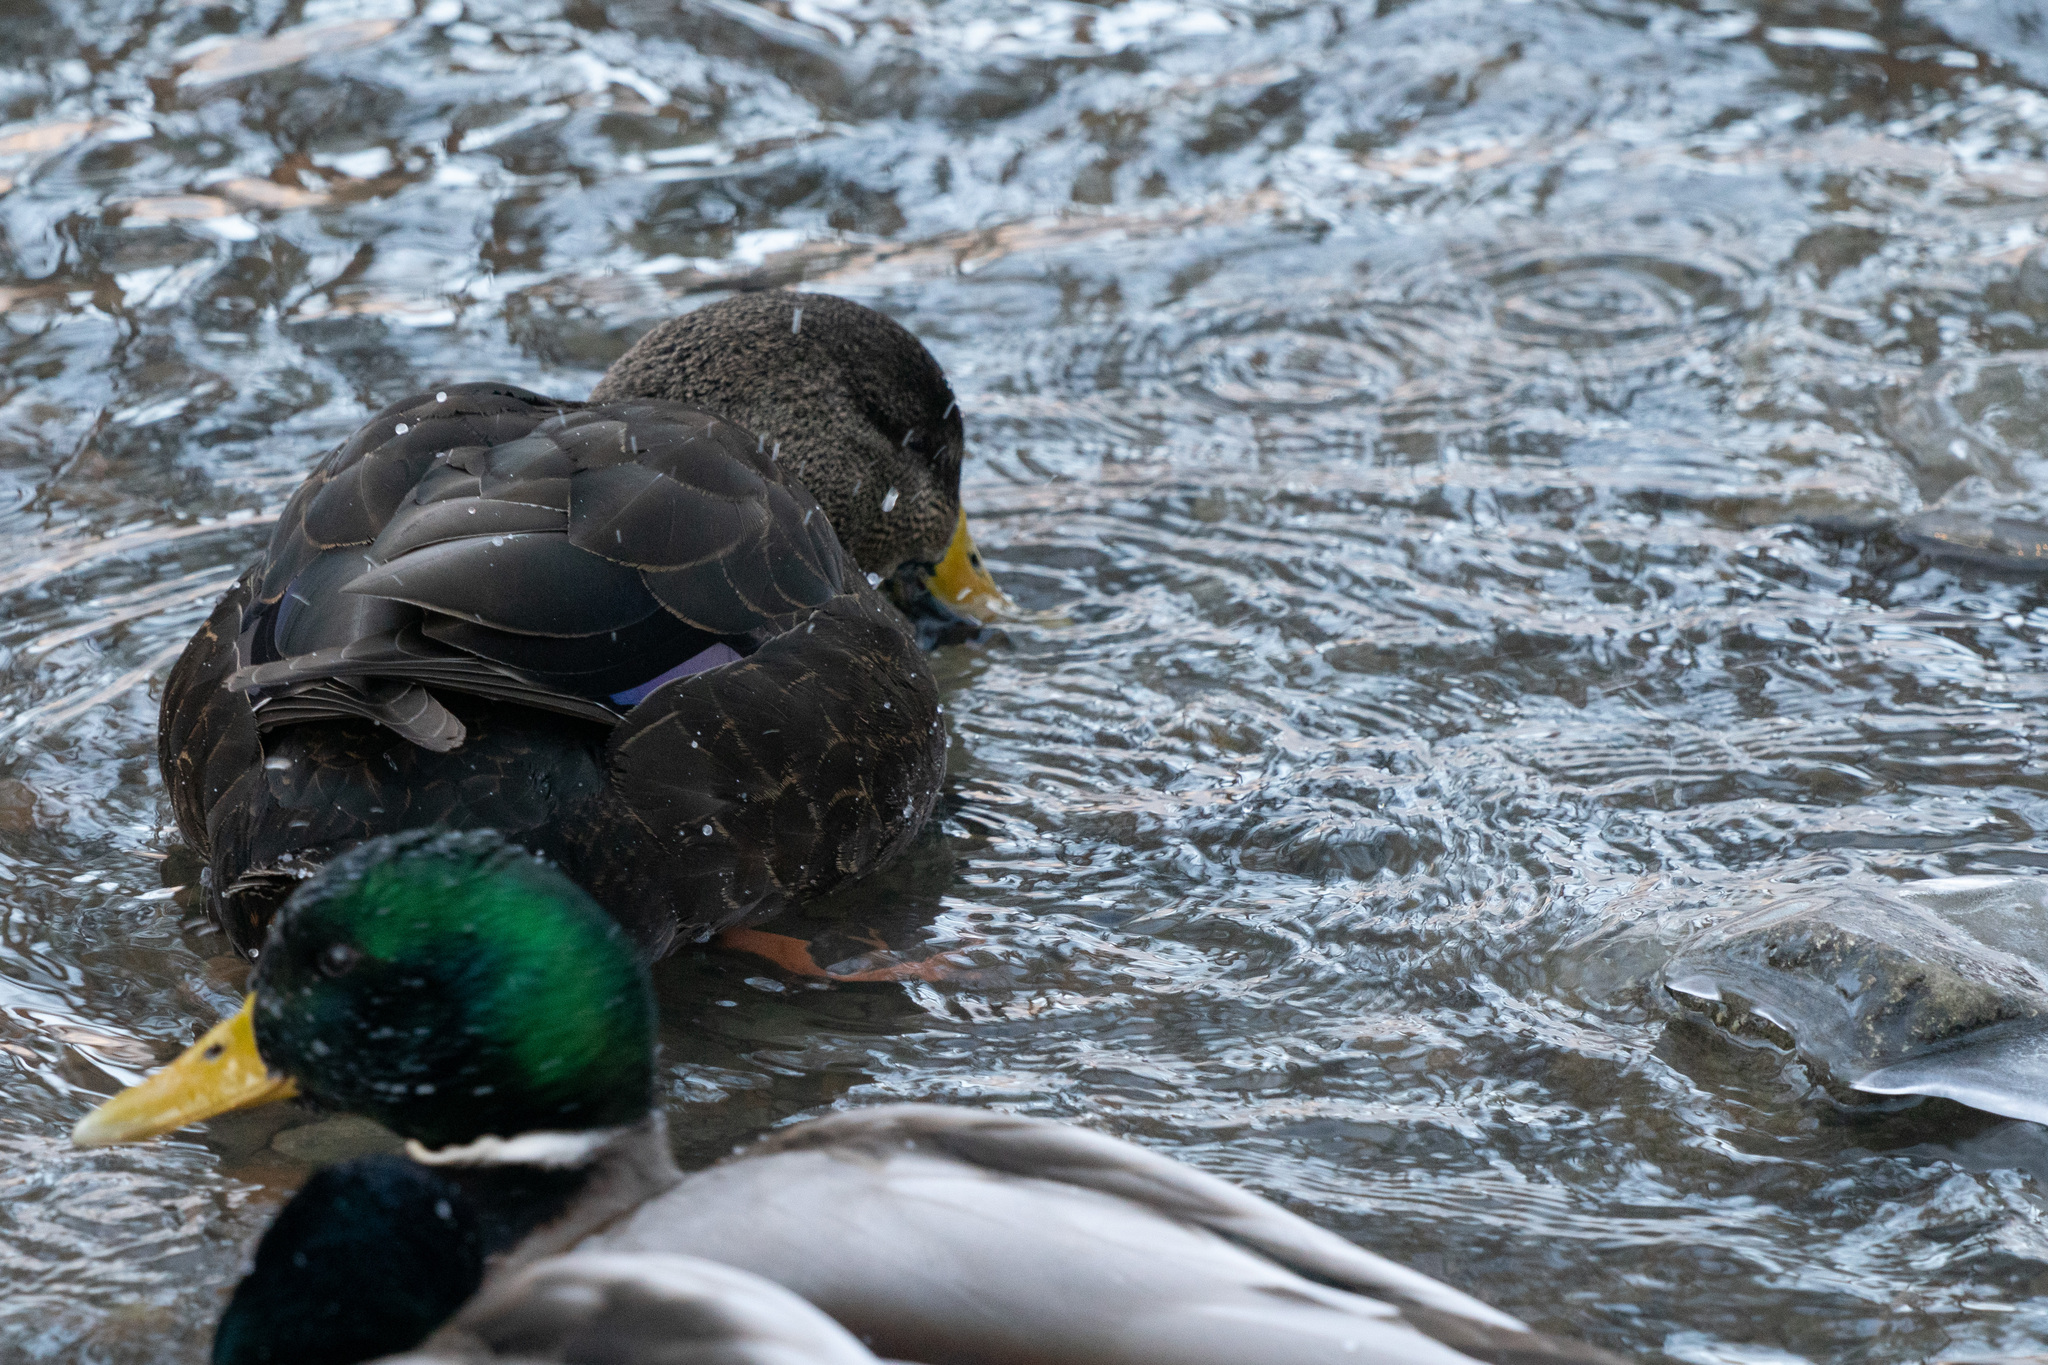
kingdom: Animalia
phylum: Chordata
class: Aves
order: Anseriformes
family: Anatidae
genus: Anas
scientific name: Anas rubripes
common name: American black duck
